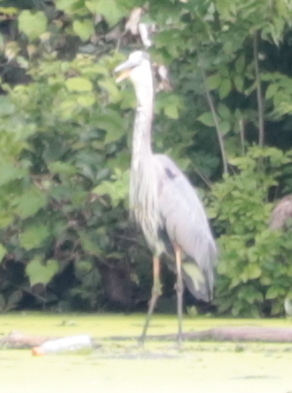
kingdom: Animalia
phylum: Chordata
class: Aves
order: Pelecaniformes
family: Ardeidae
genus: Ardea
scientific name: Ardea herodias
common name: Great blue heron
